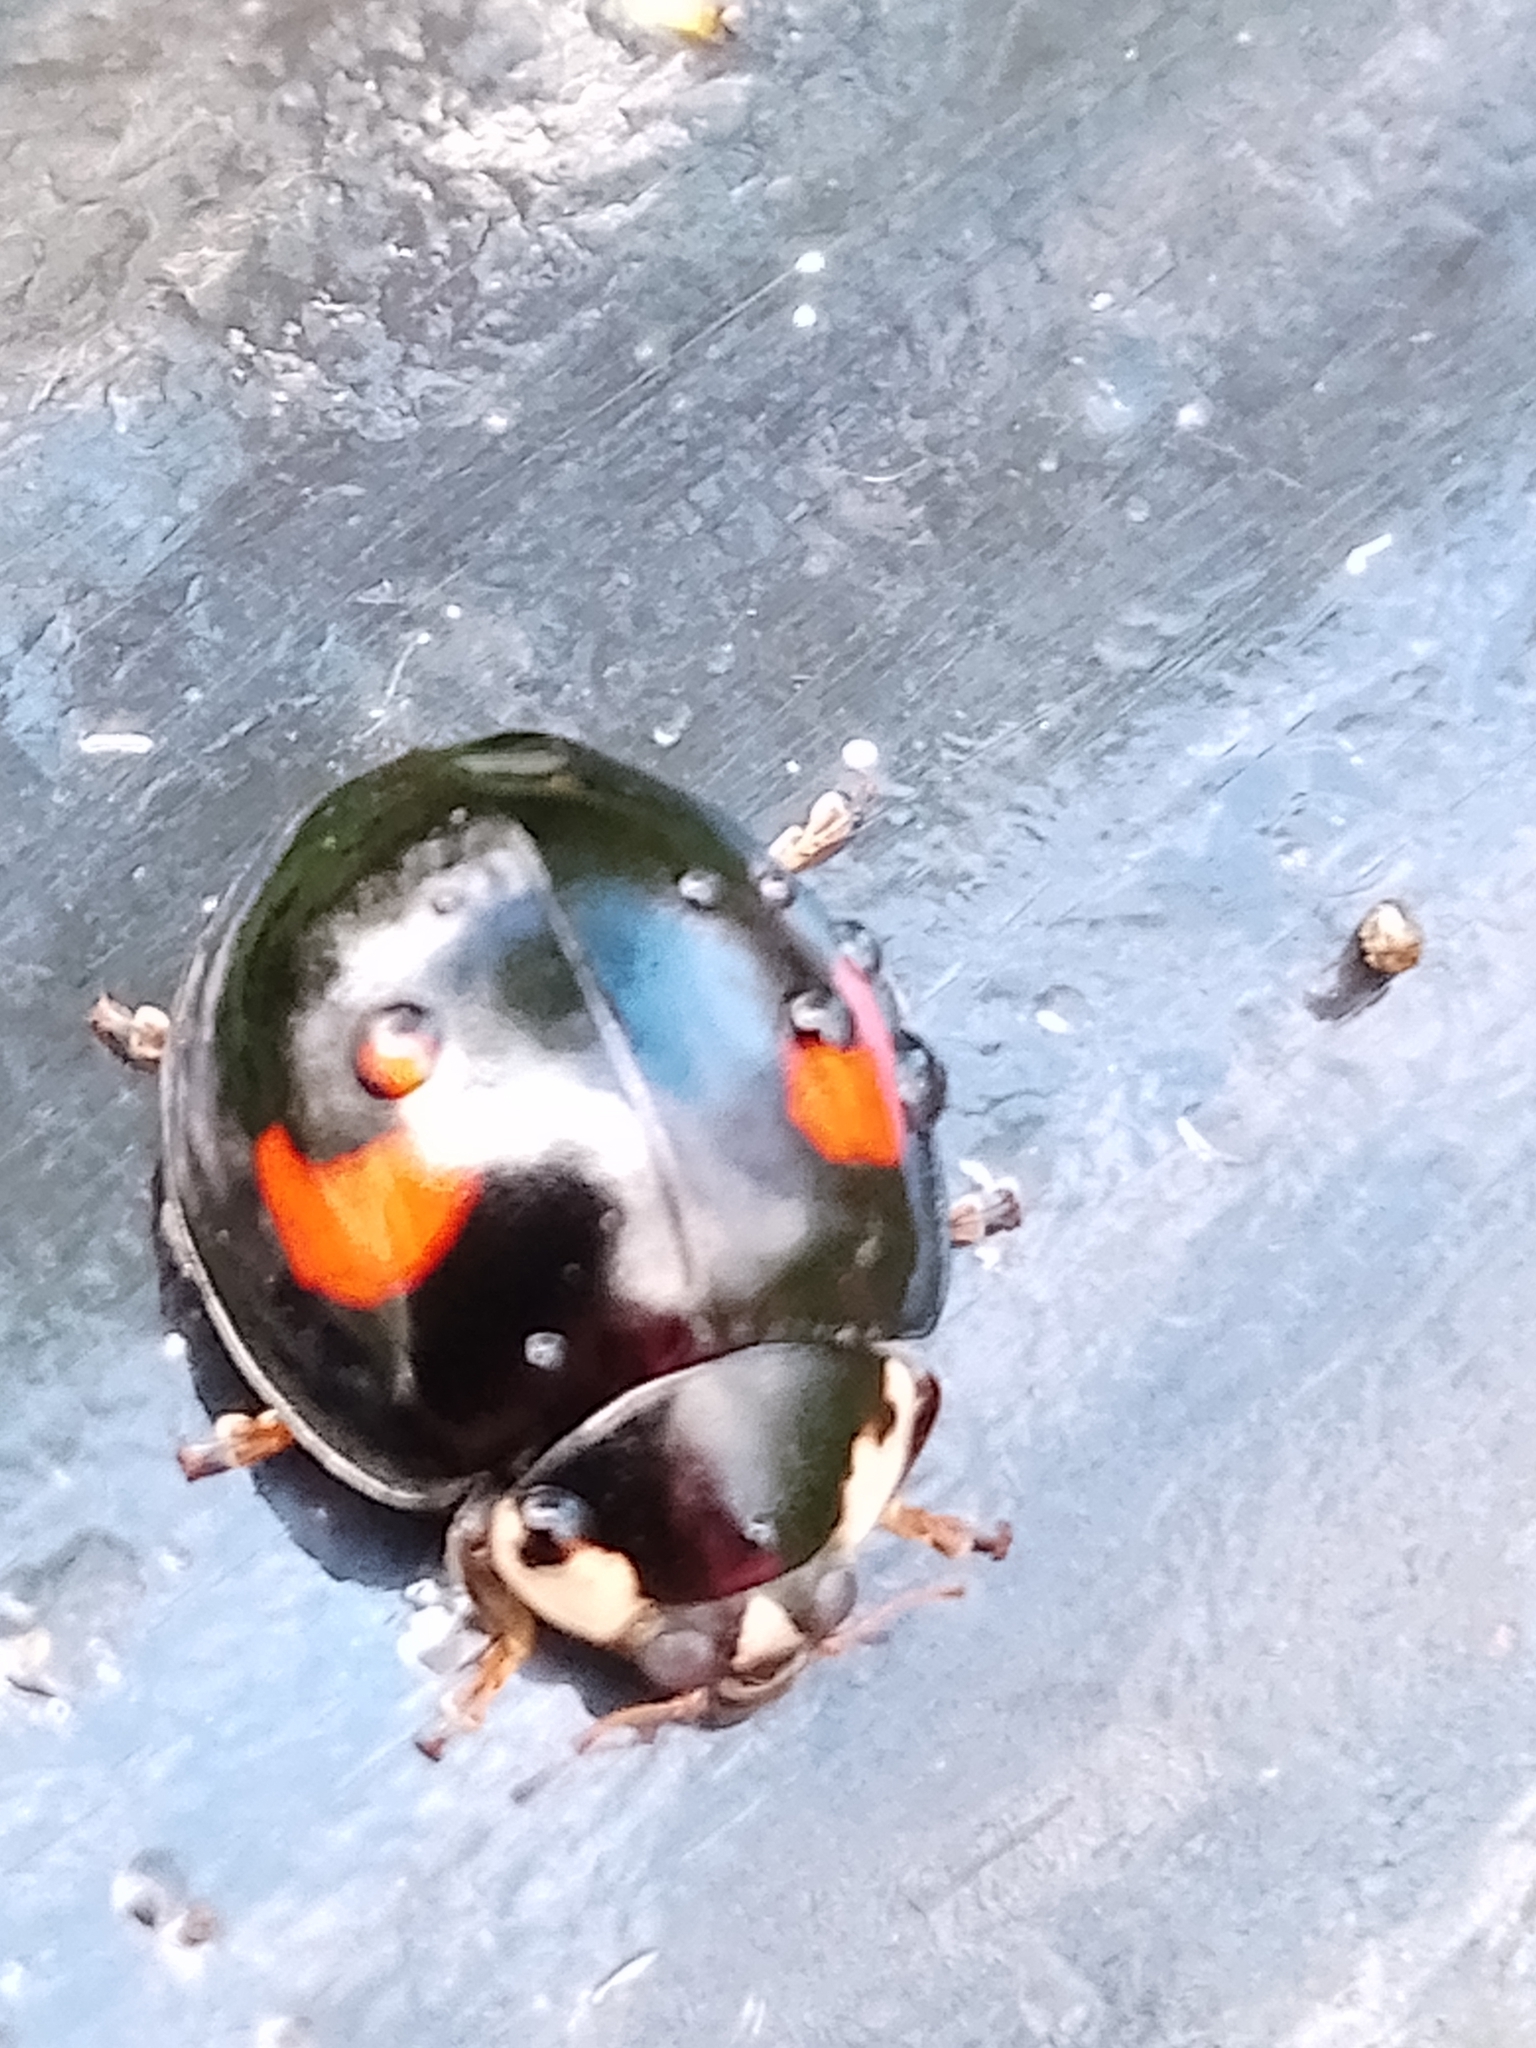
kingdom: Animalia
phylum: Arthropoda
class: Insecta
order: Coleoptera
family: Coccinellidae
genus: Harmonia
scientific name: Harmonia axyridis
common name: Harlequin ladybird
